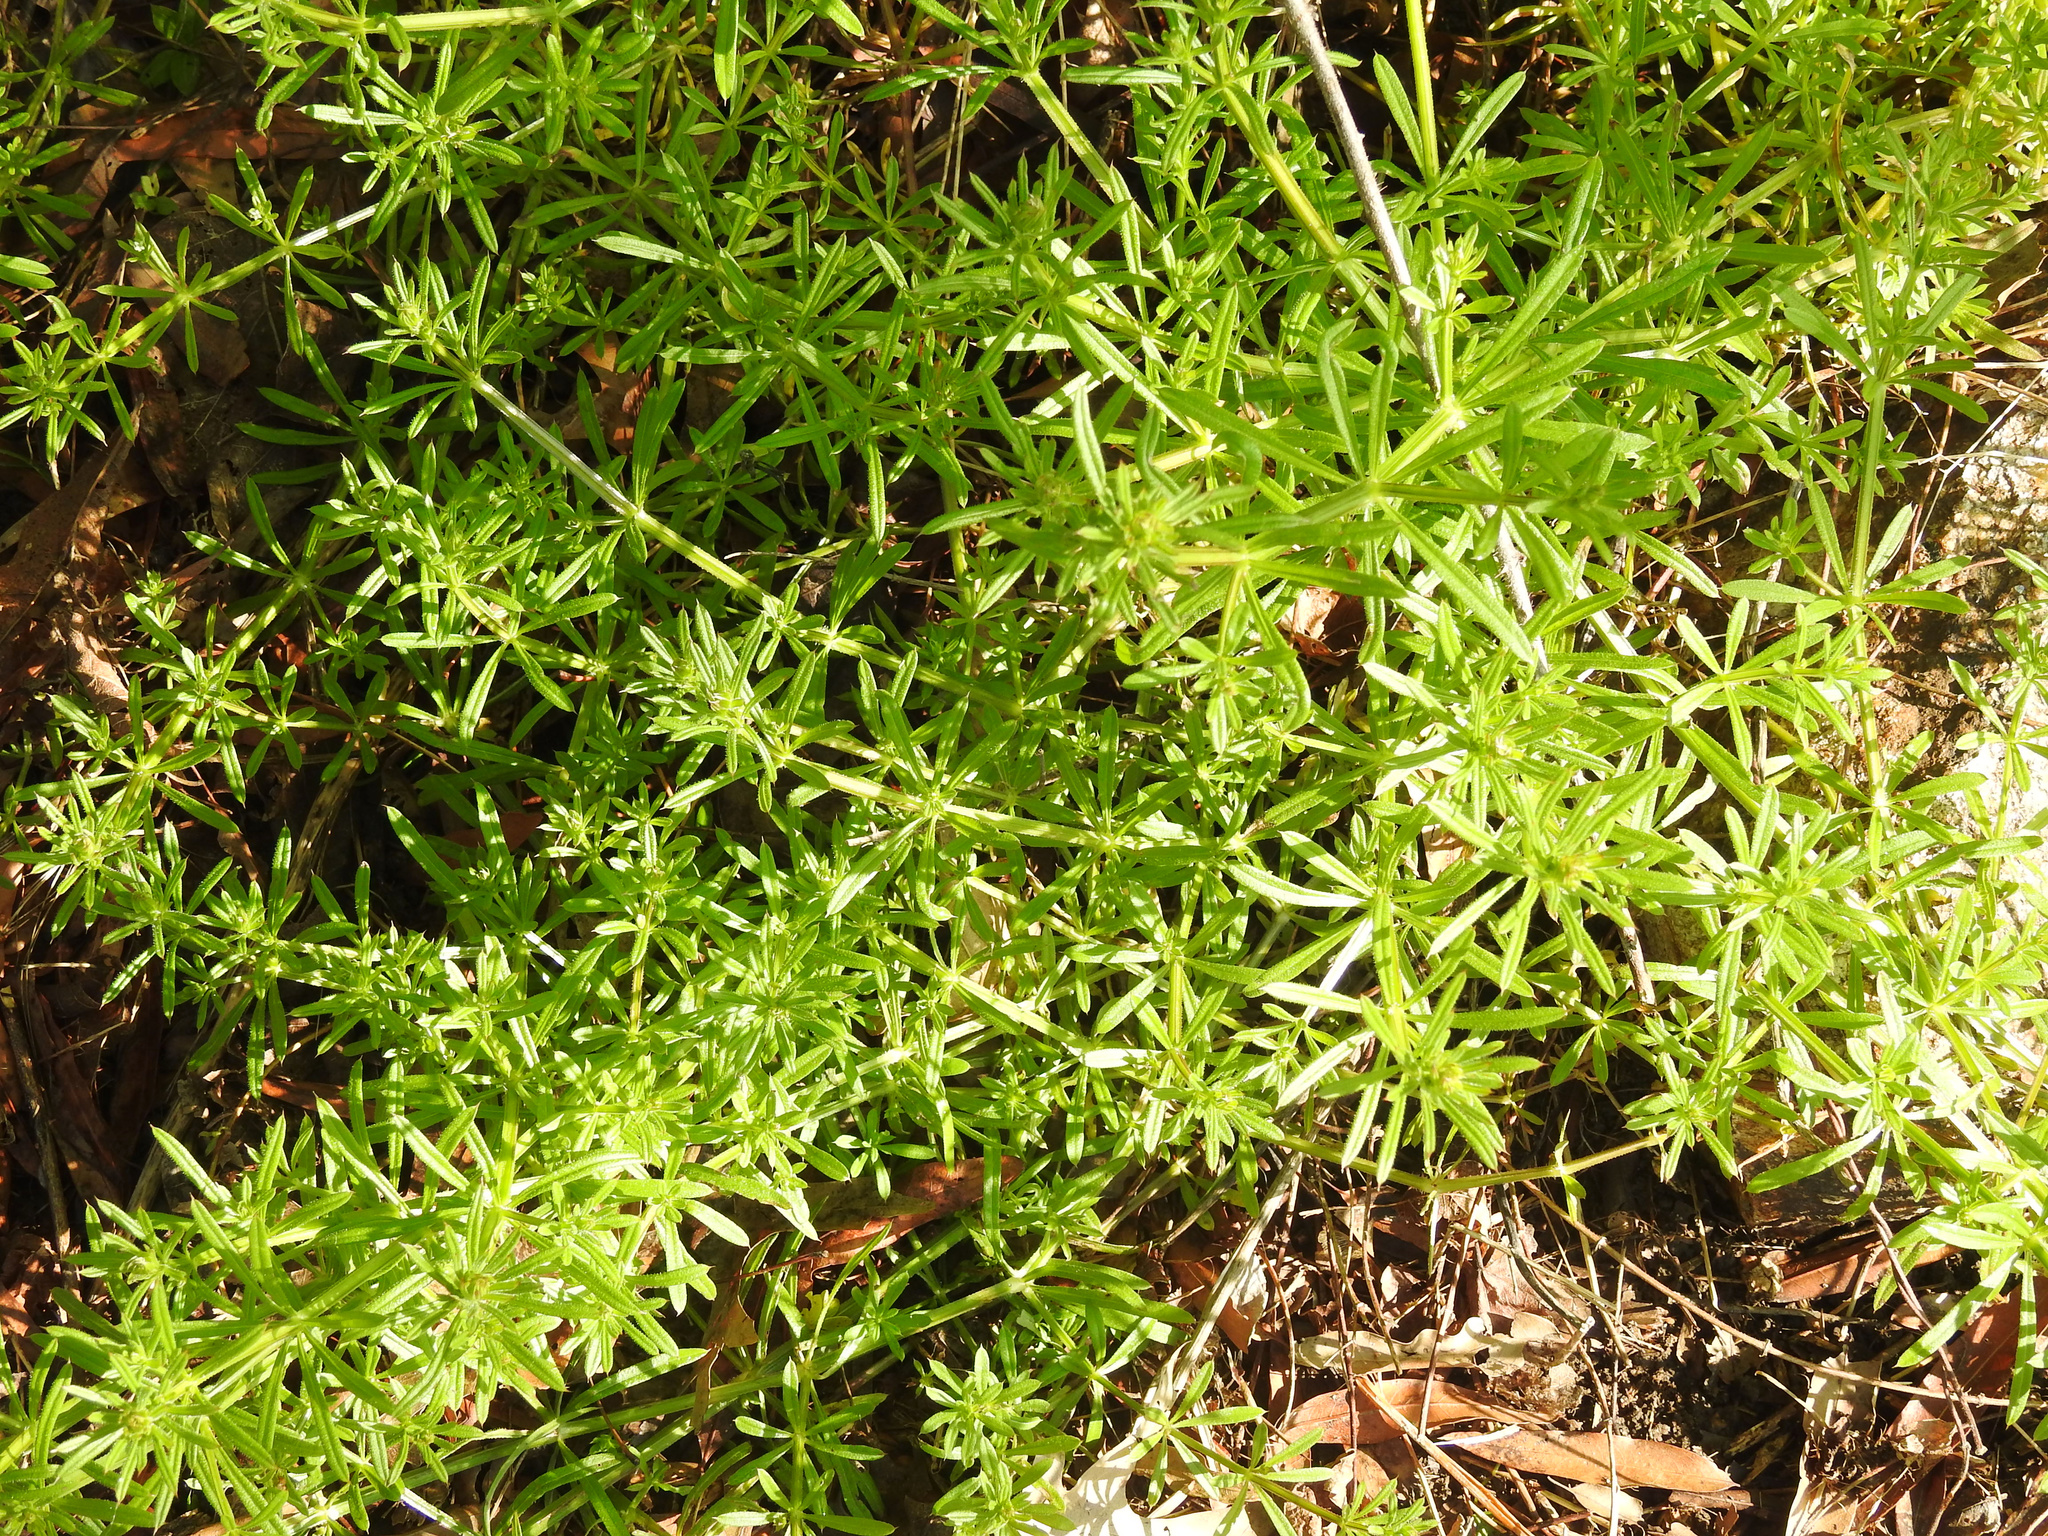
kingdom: Plantae
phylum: Tracheophyta
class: Magnoliopsida
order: Gentianales
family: Rubiaceae
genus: Galium
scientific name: Galium aparine
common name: Cleavers
